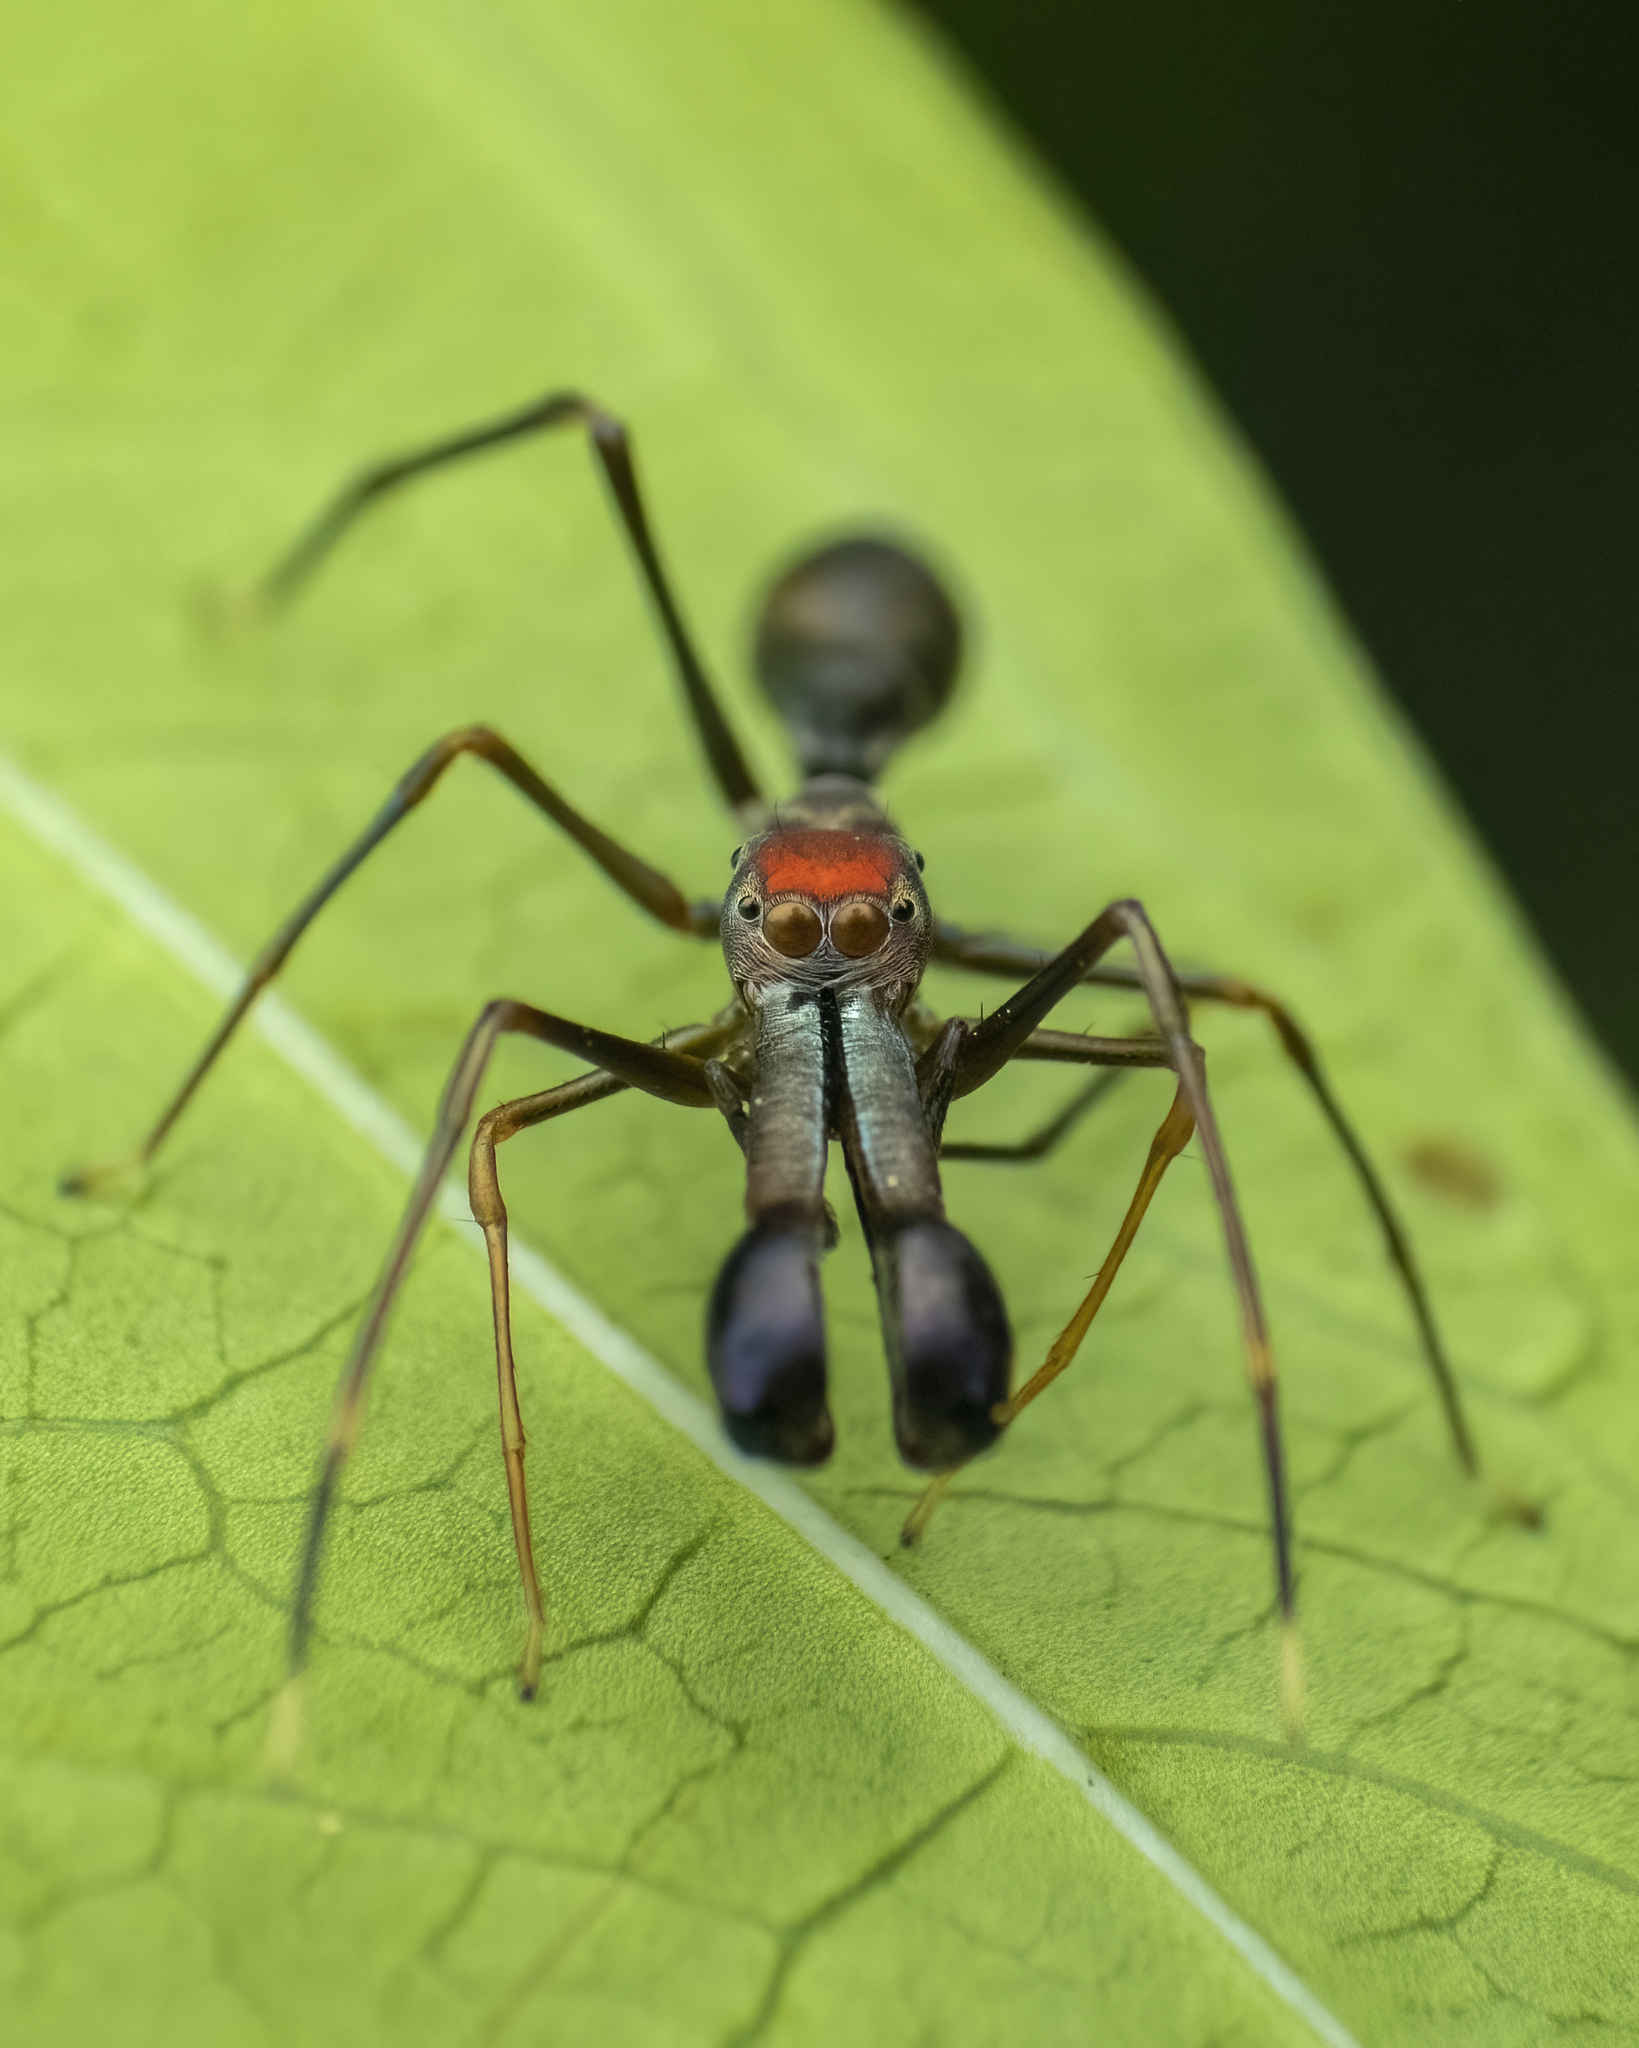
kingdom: Animalia
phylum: Arthropoda
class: Arachnida
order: Araneae
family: Salticidae
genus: Myrmarachne
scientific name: Myrmarachne melanocephala
